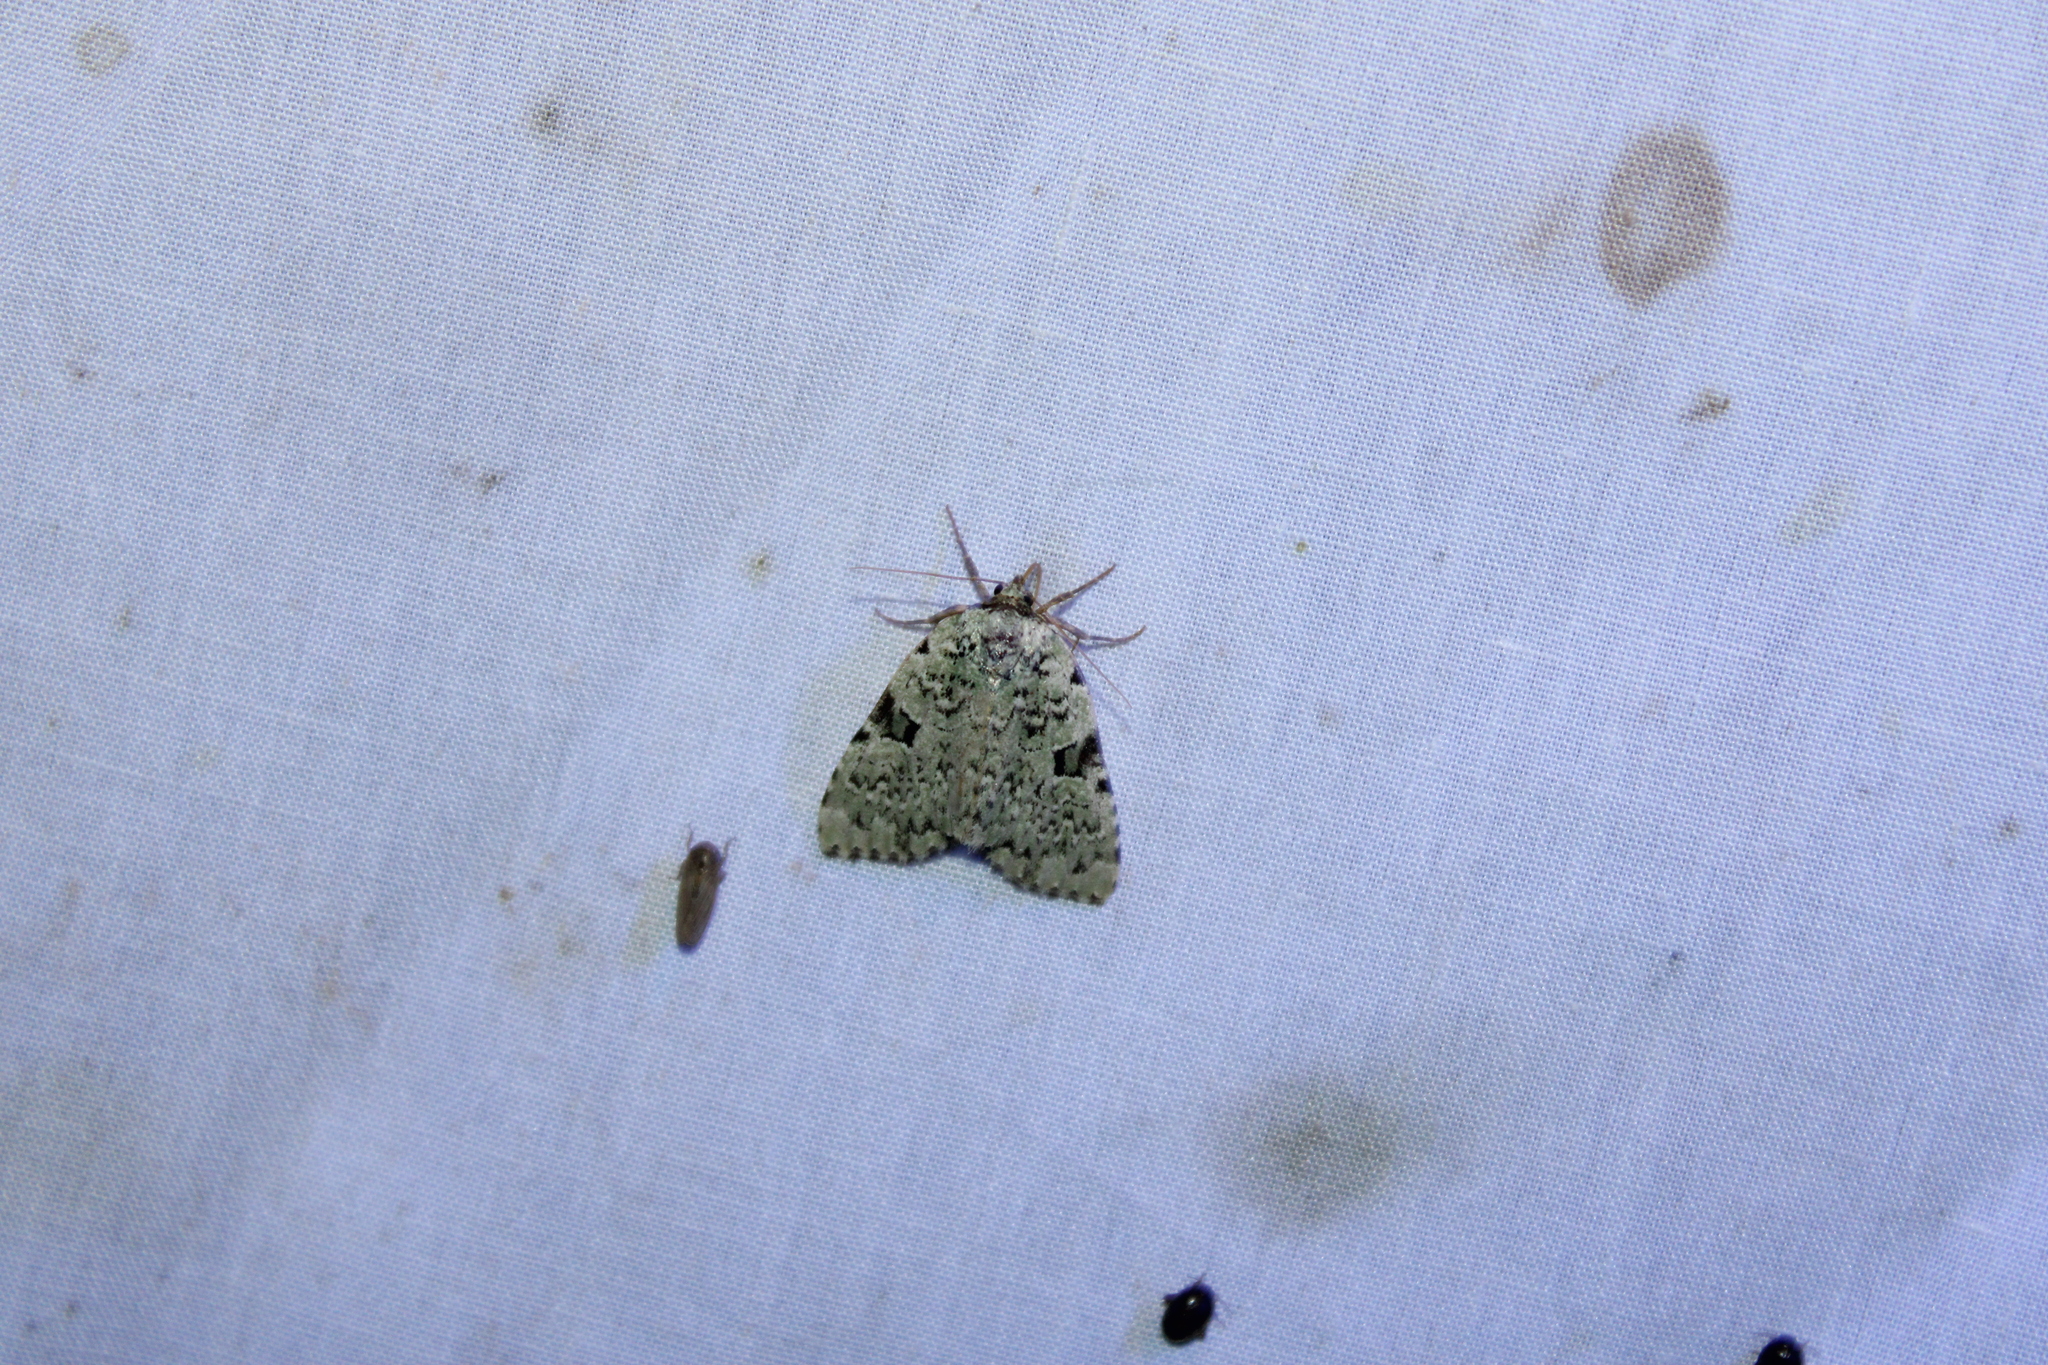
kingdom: Animalia
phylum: Arthropoda
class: Insecta
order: Lepidoptera
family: Noctuidae
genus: Leuconycta
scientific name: Leuconycta diphteroides
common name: Green leuconycta moth
